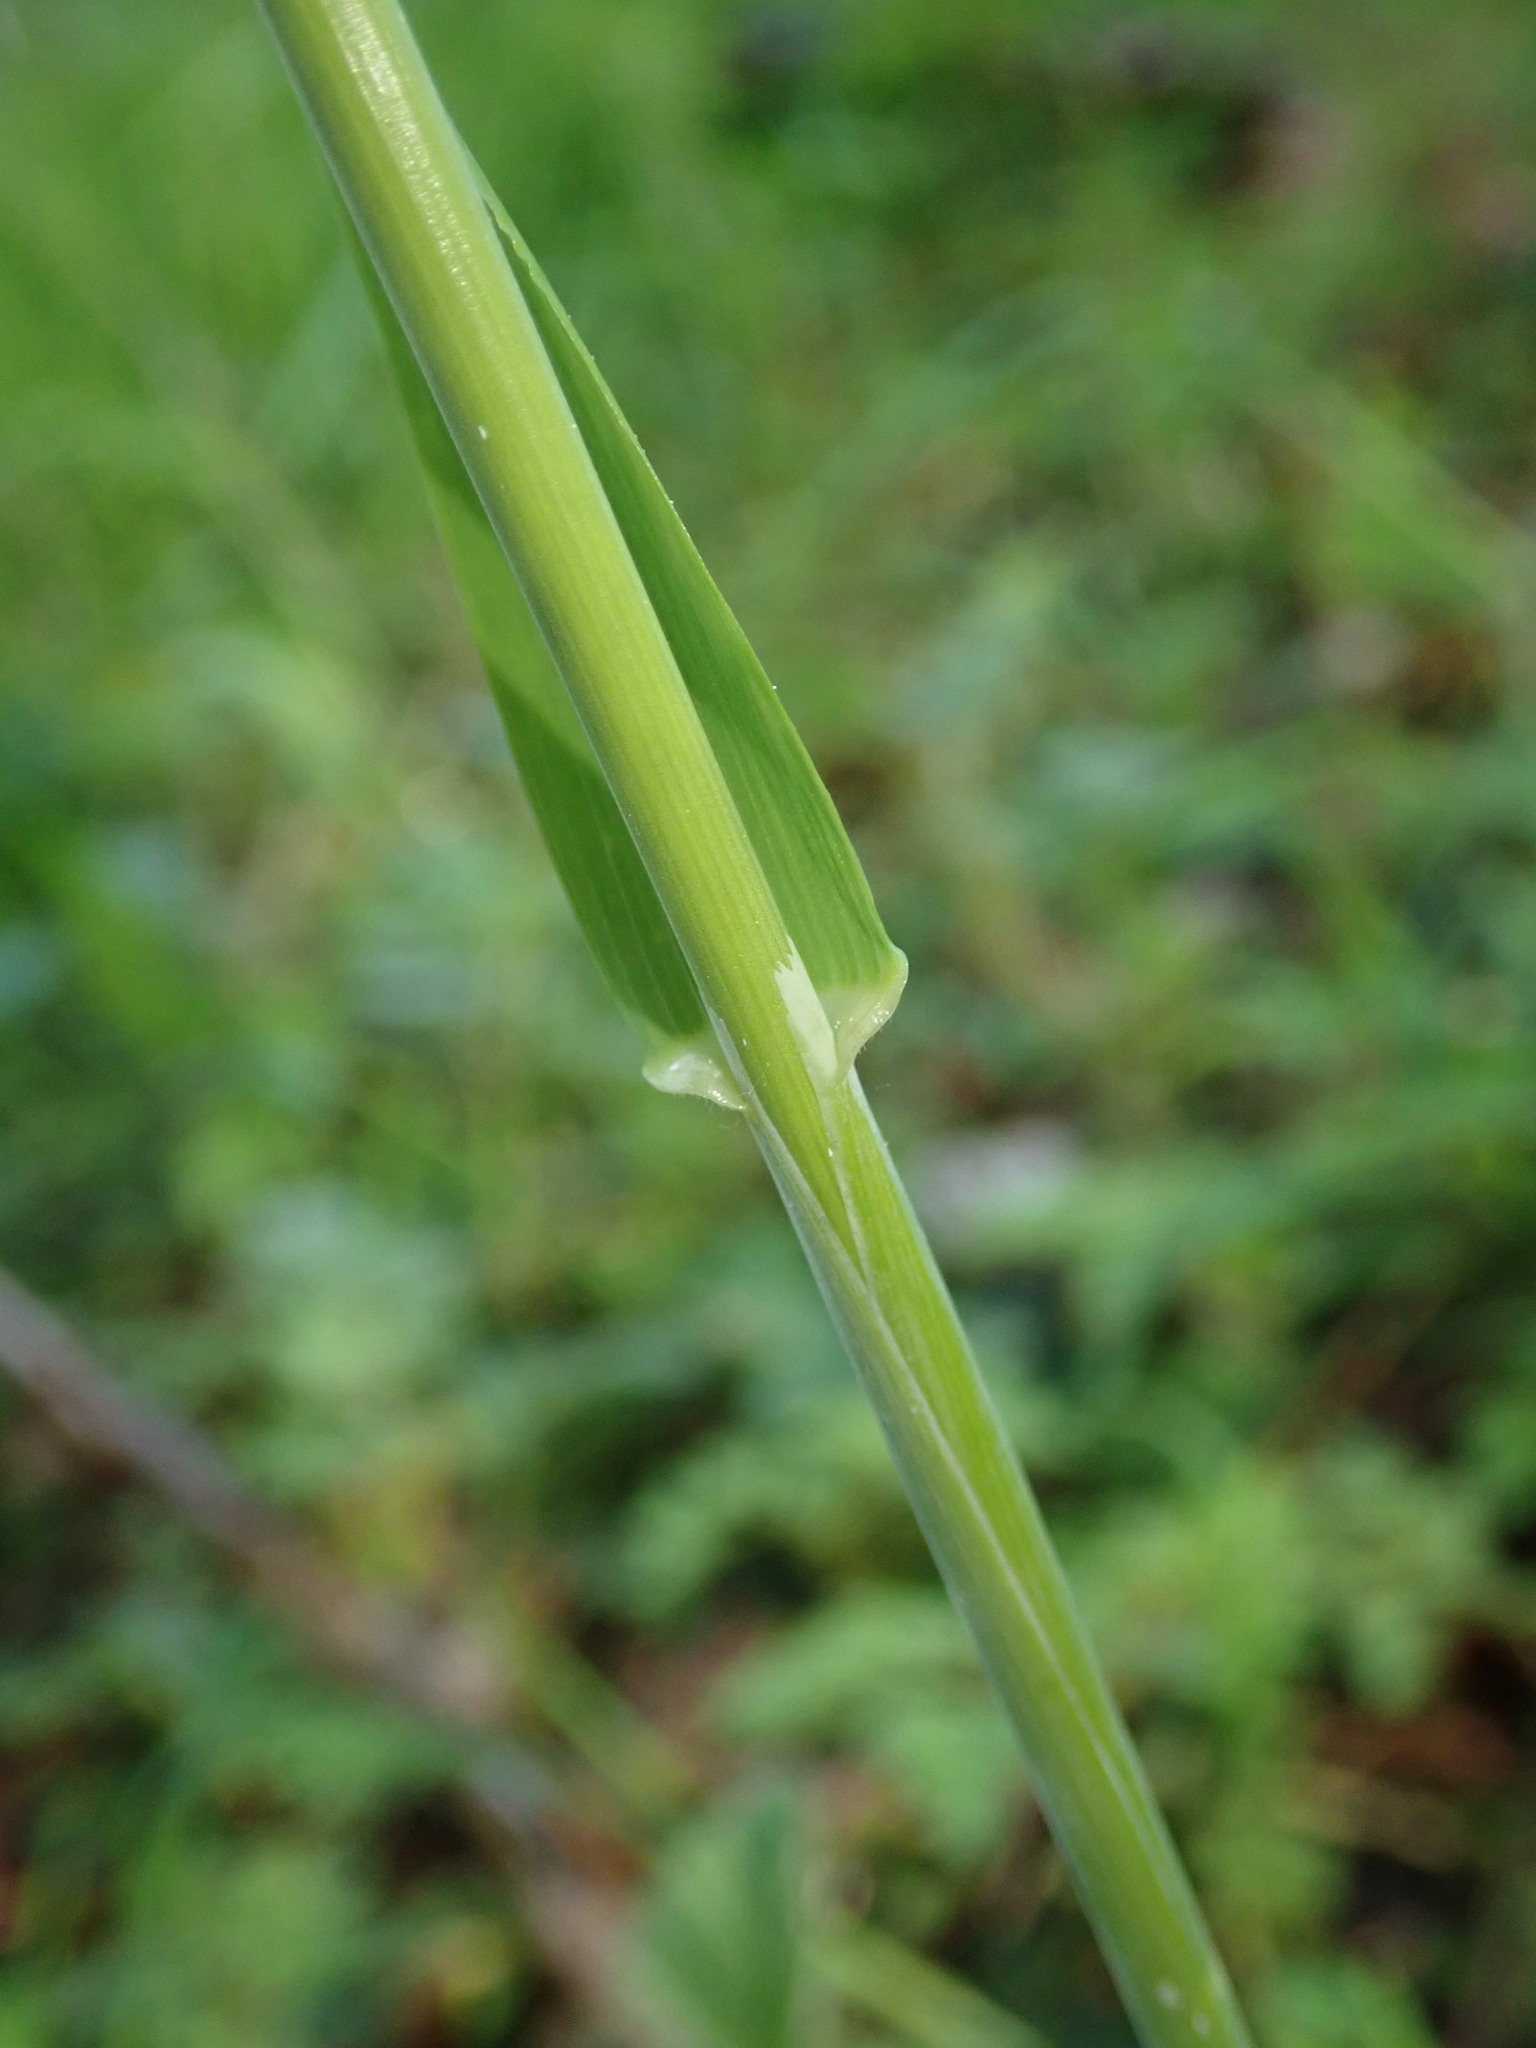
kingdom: Plantae
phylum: Tracheophyta
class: Liliopsida
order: Poales
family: Poaceae
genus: Milium
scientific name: Milium effusum
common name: Wood millet
